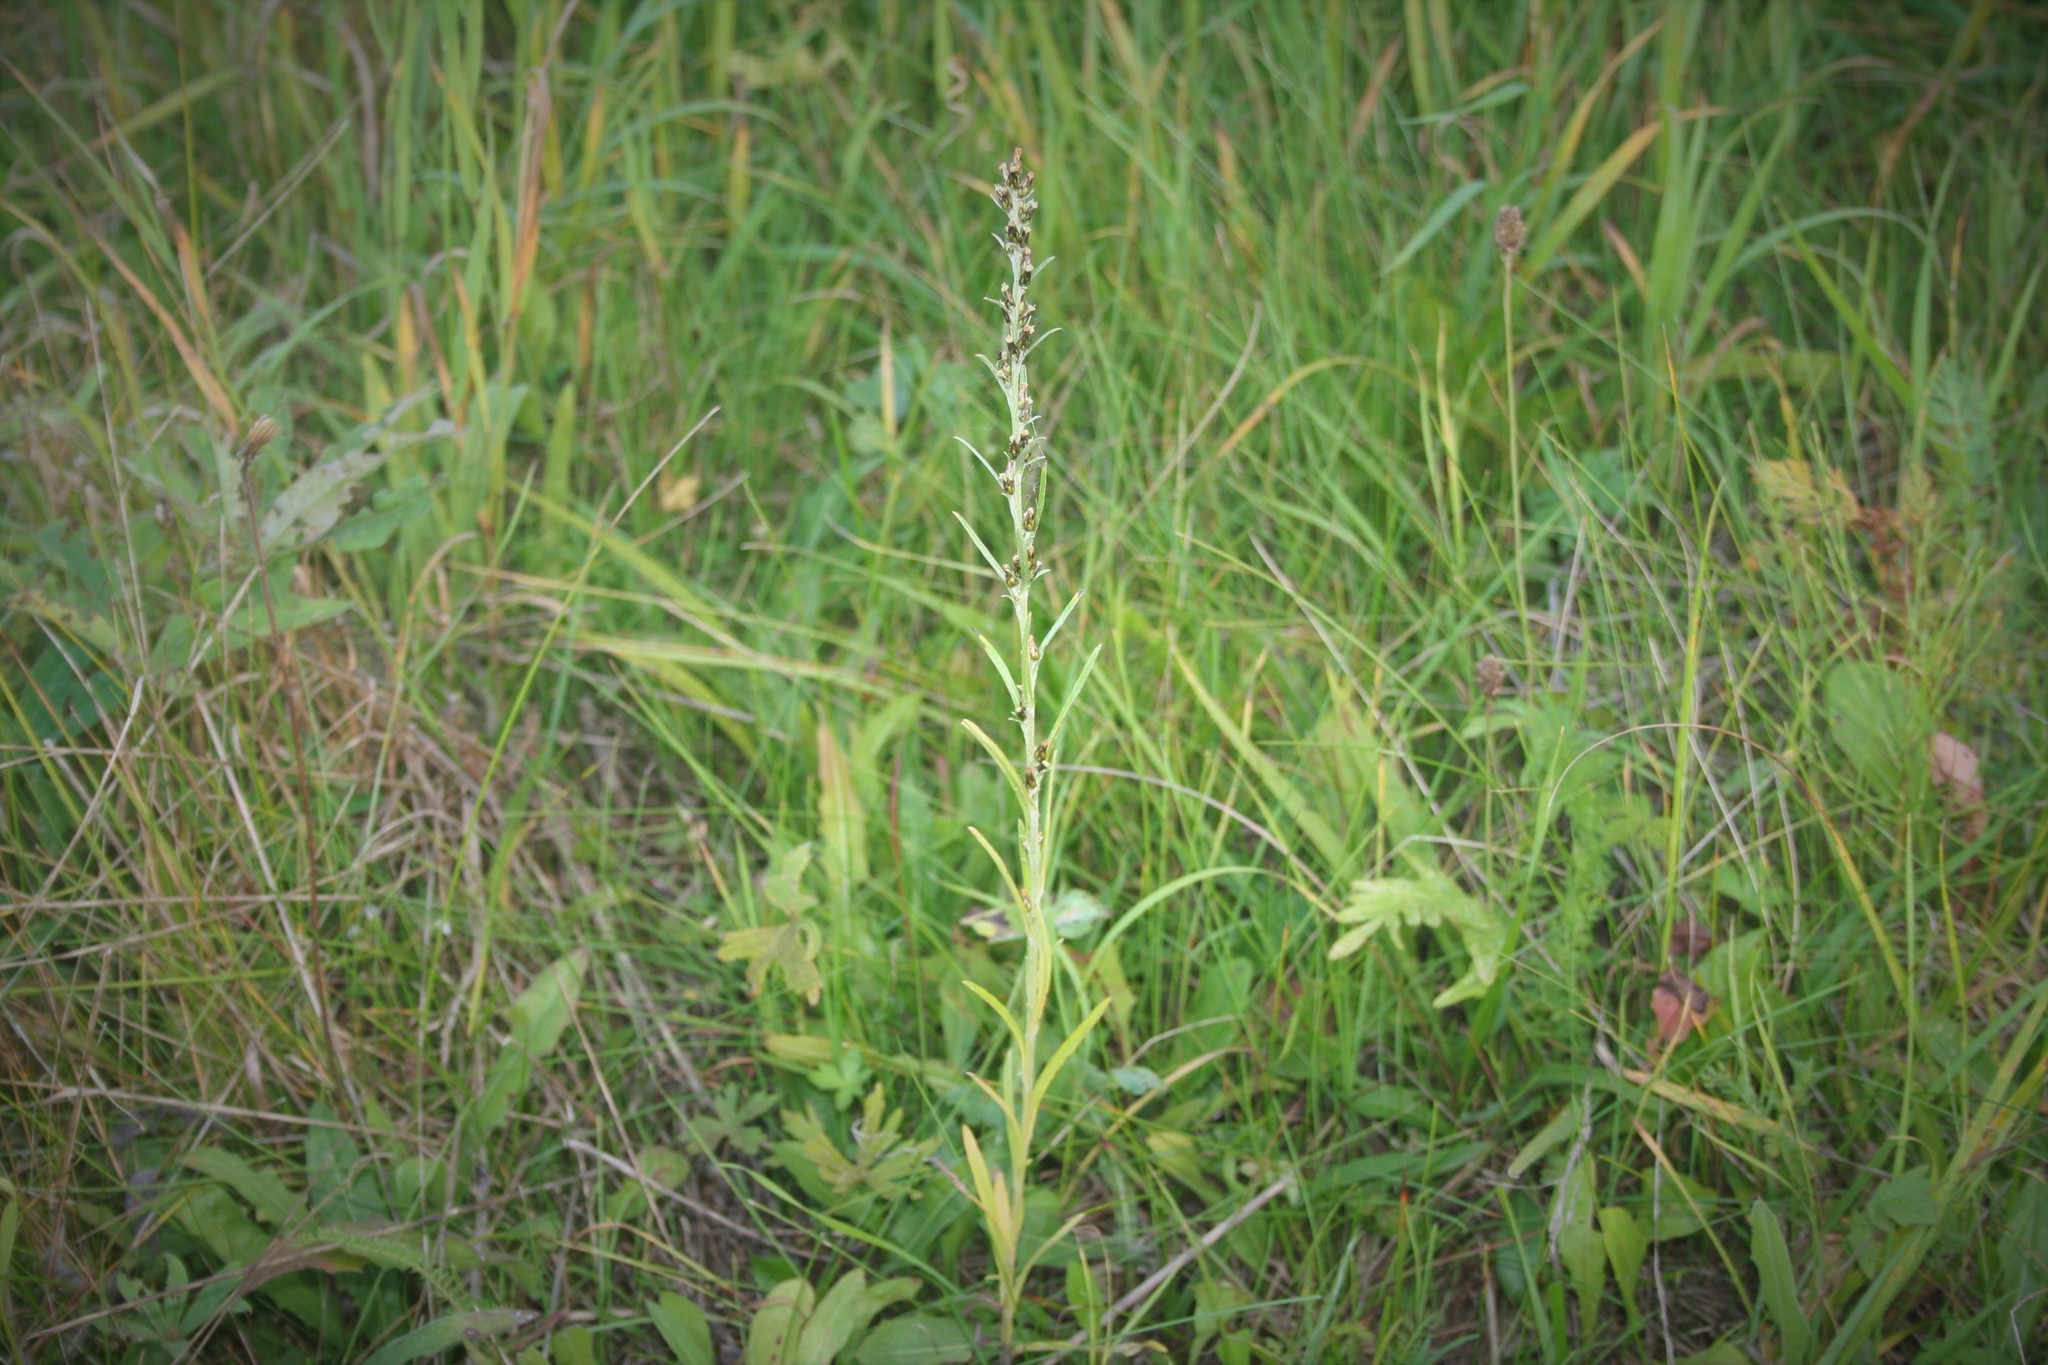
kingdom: Plantae
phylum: Tracheophyta
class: Magnoliopsida
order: Asterales
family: Asteraceae
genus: Omalotheca
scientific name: Omalotheca sylvatica
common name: Heath cudweed
